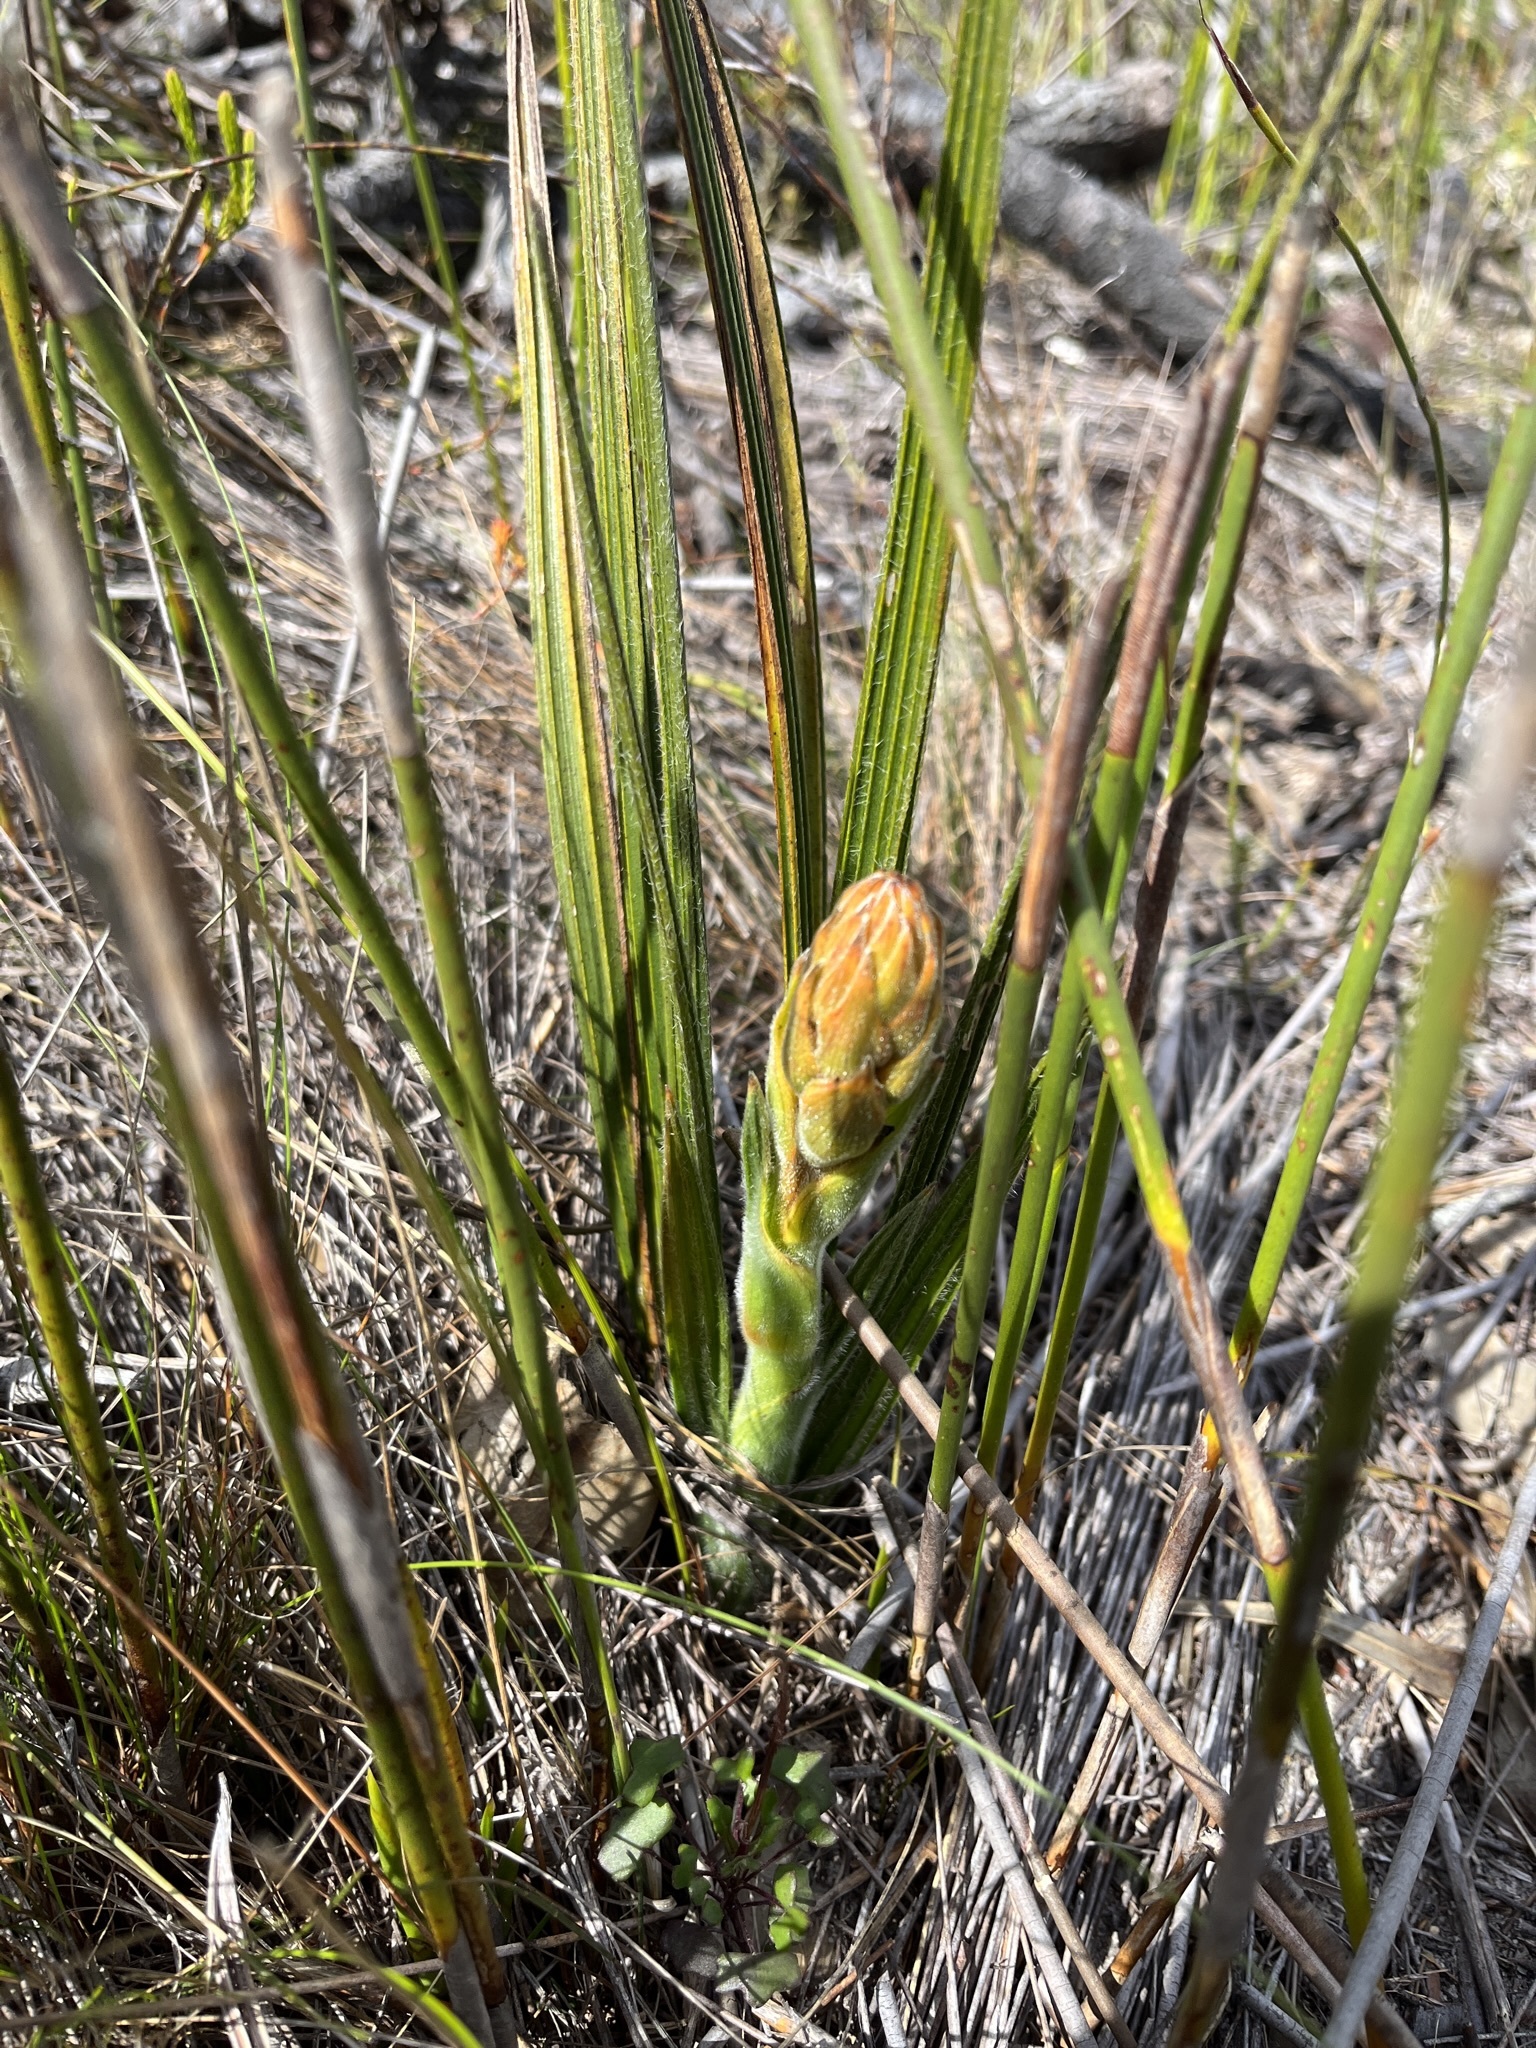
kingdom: Plantae
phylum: Tracheophyta
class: Liliopsida
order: Commelinales
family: Haemodoraceae
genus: Wachendorfia
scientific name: Wachendorfia paniculata
